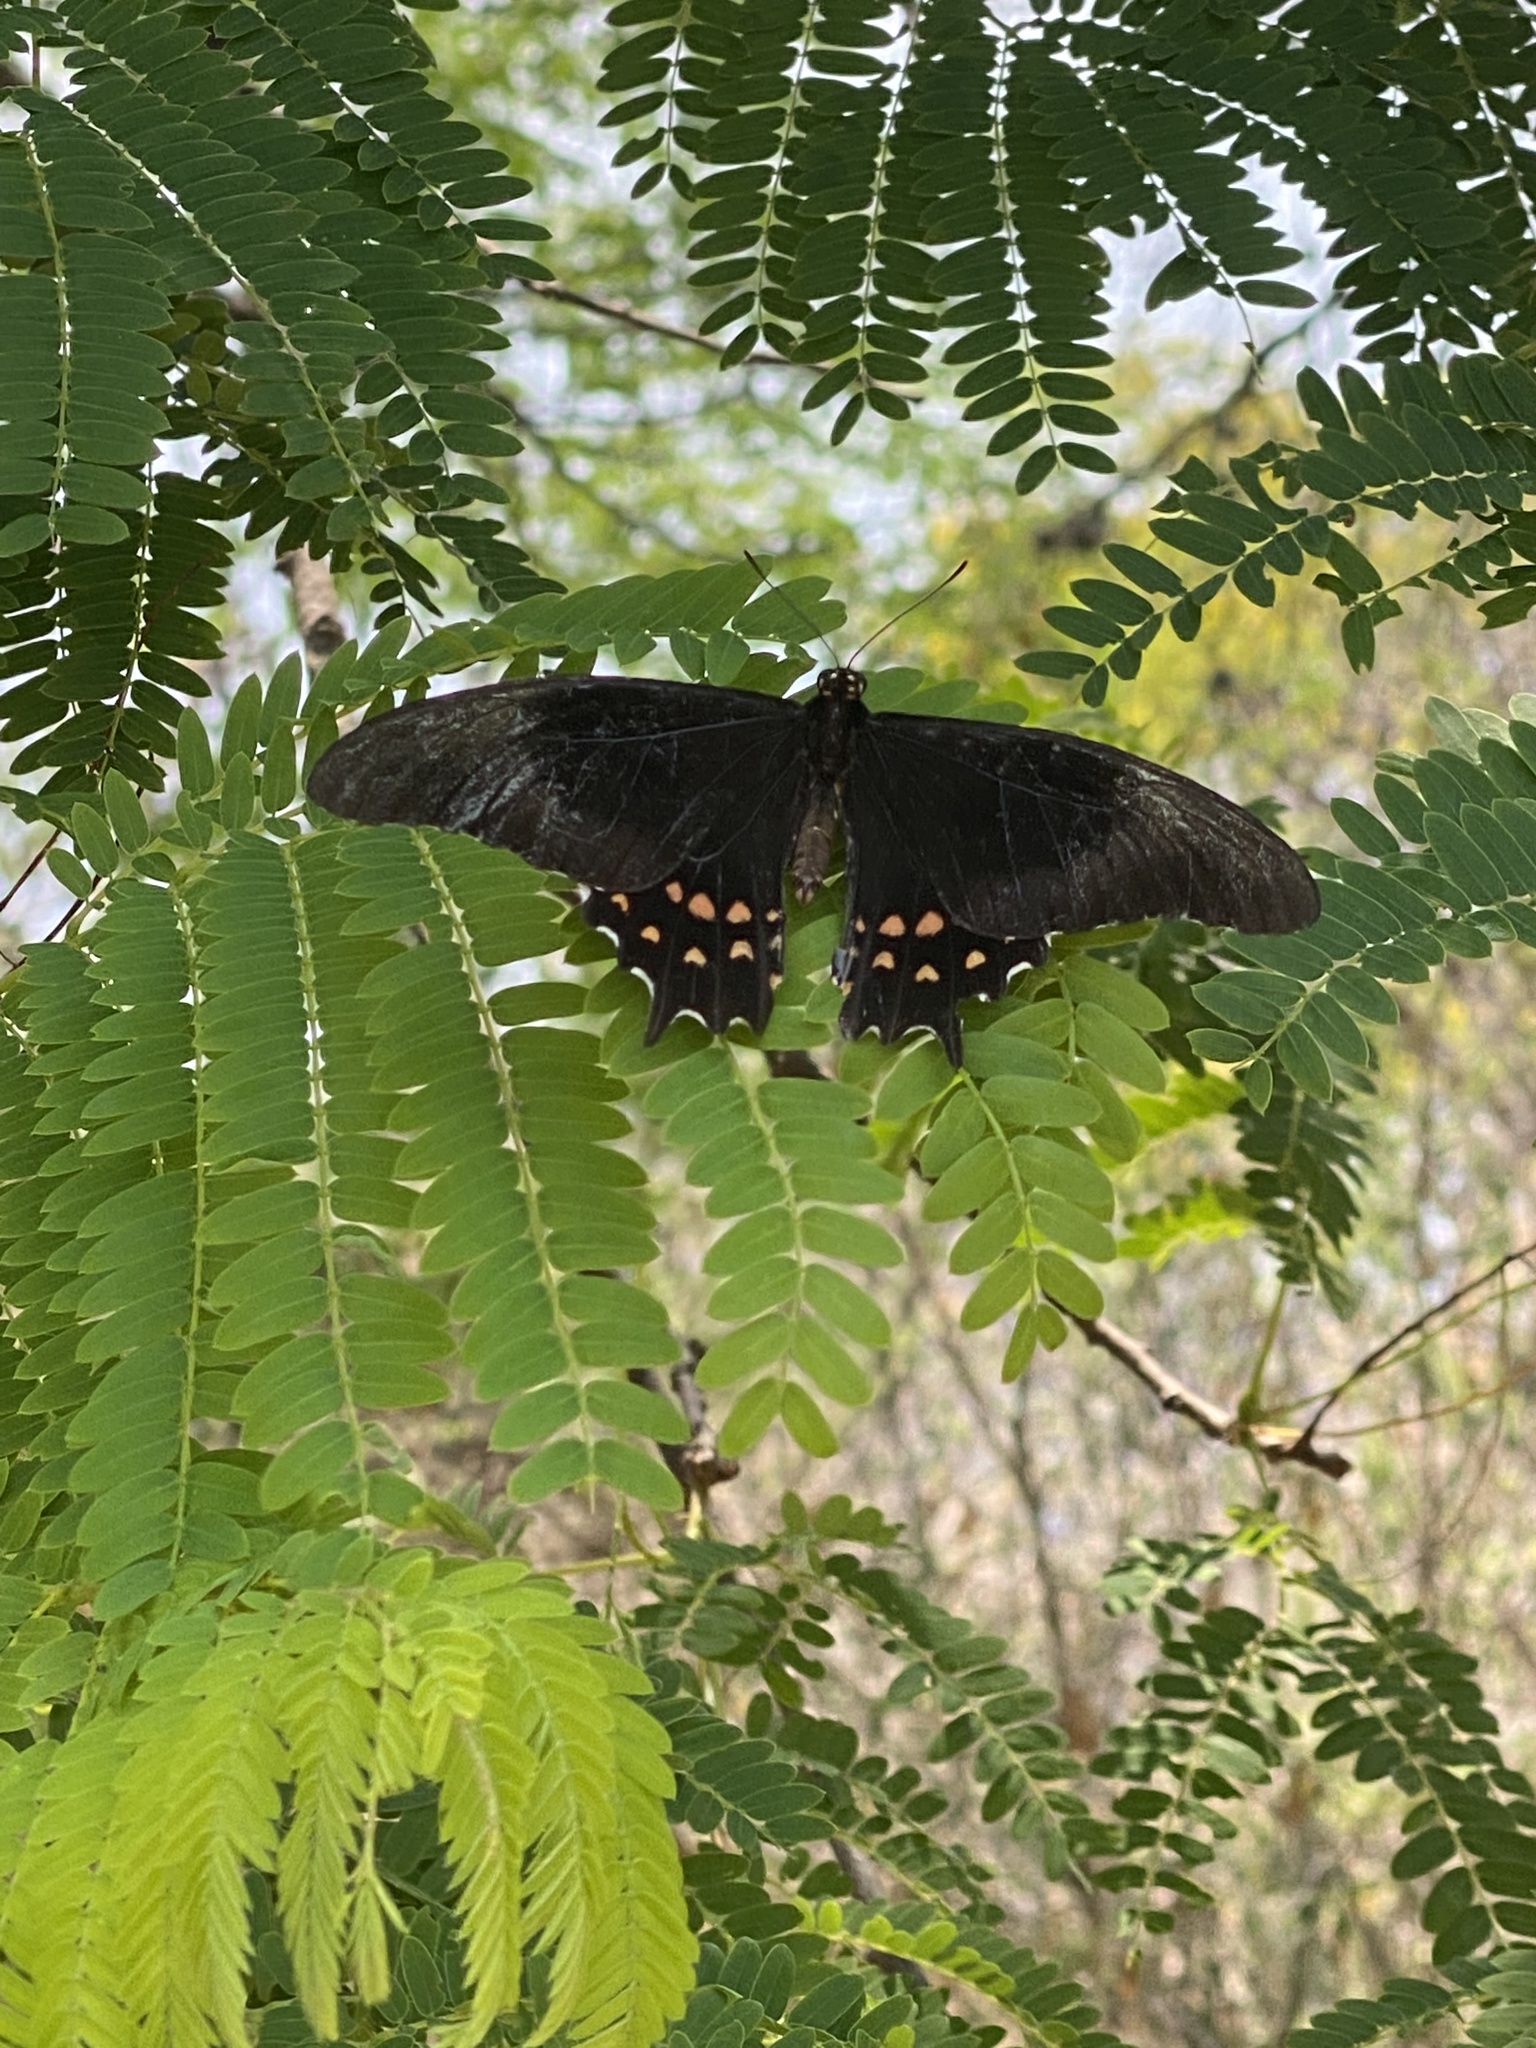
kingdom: Animalia
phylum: Arthropoda
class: Insecta
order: Lepidoptera
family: Papilionidae
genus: Heraclides
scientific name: Heraclides rogeri
